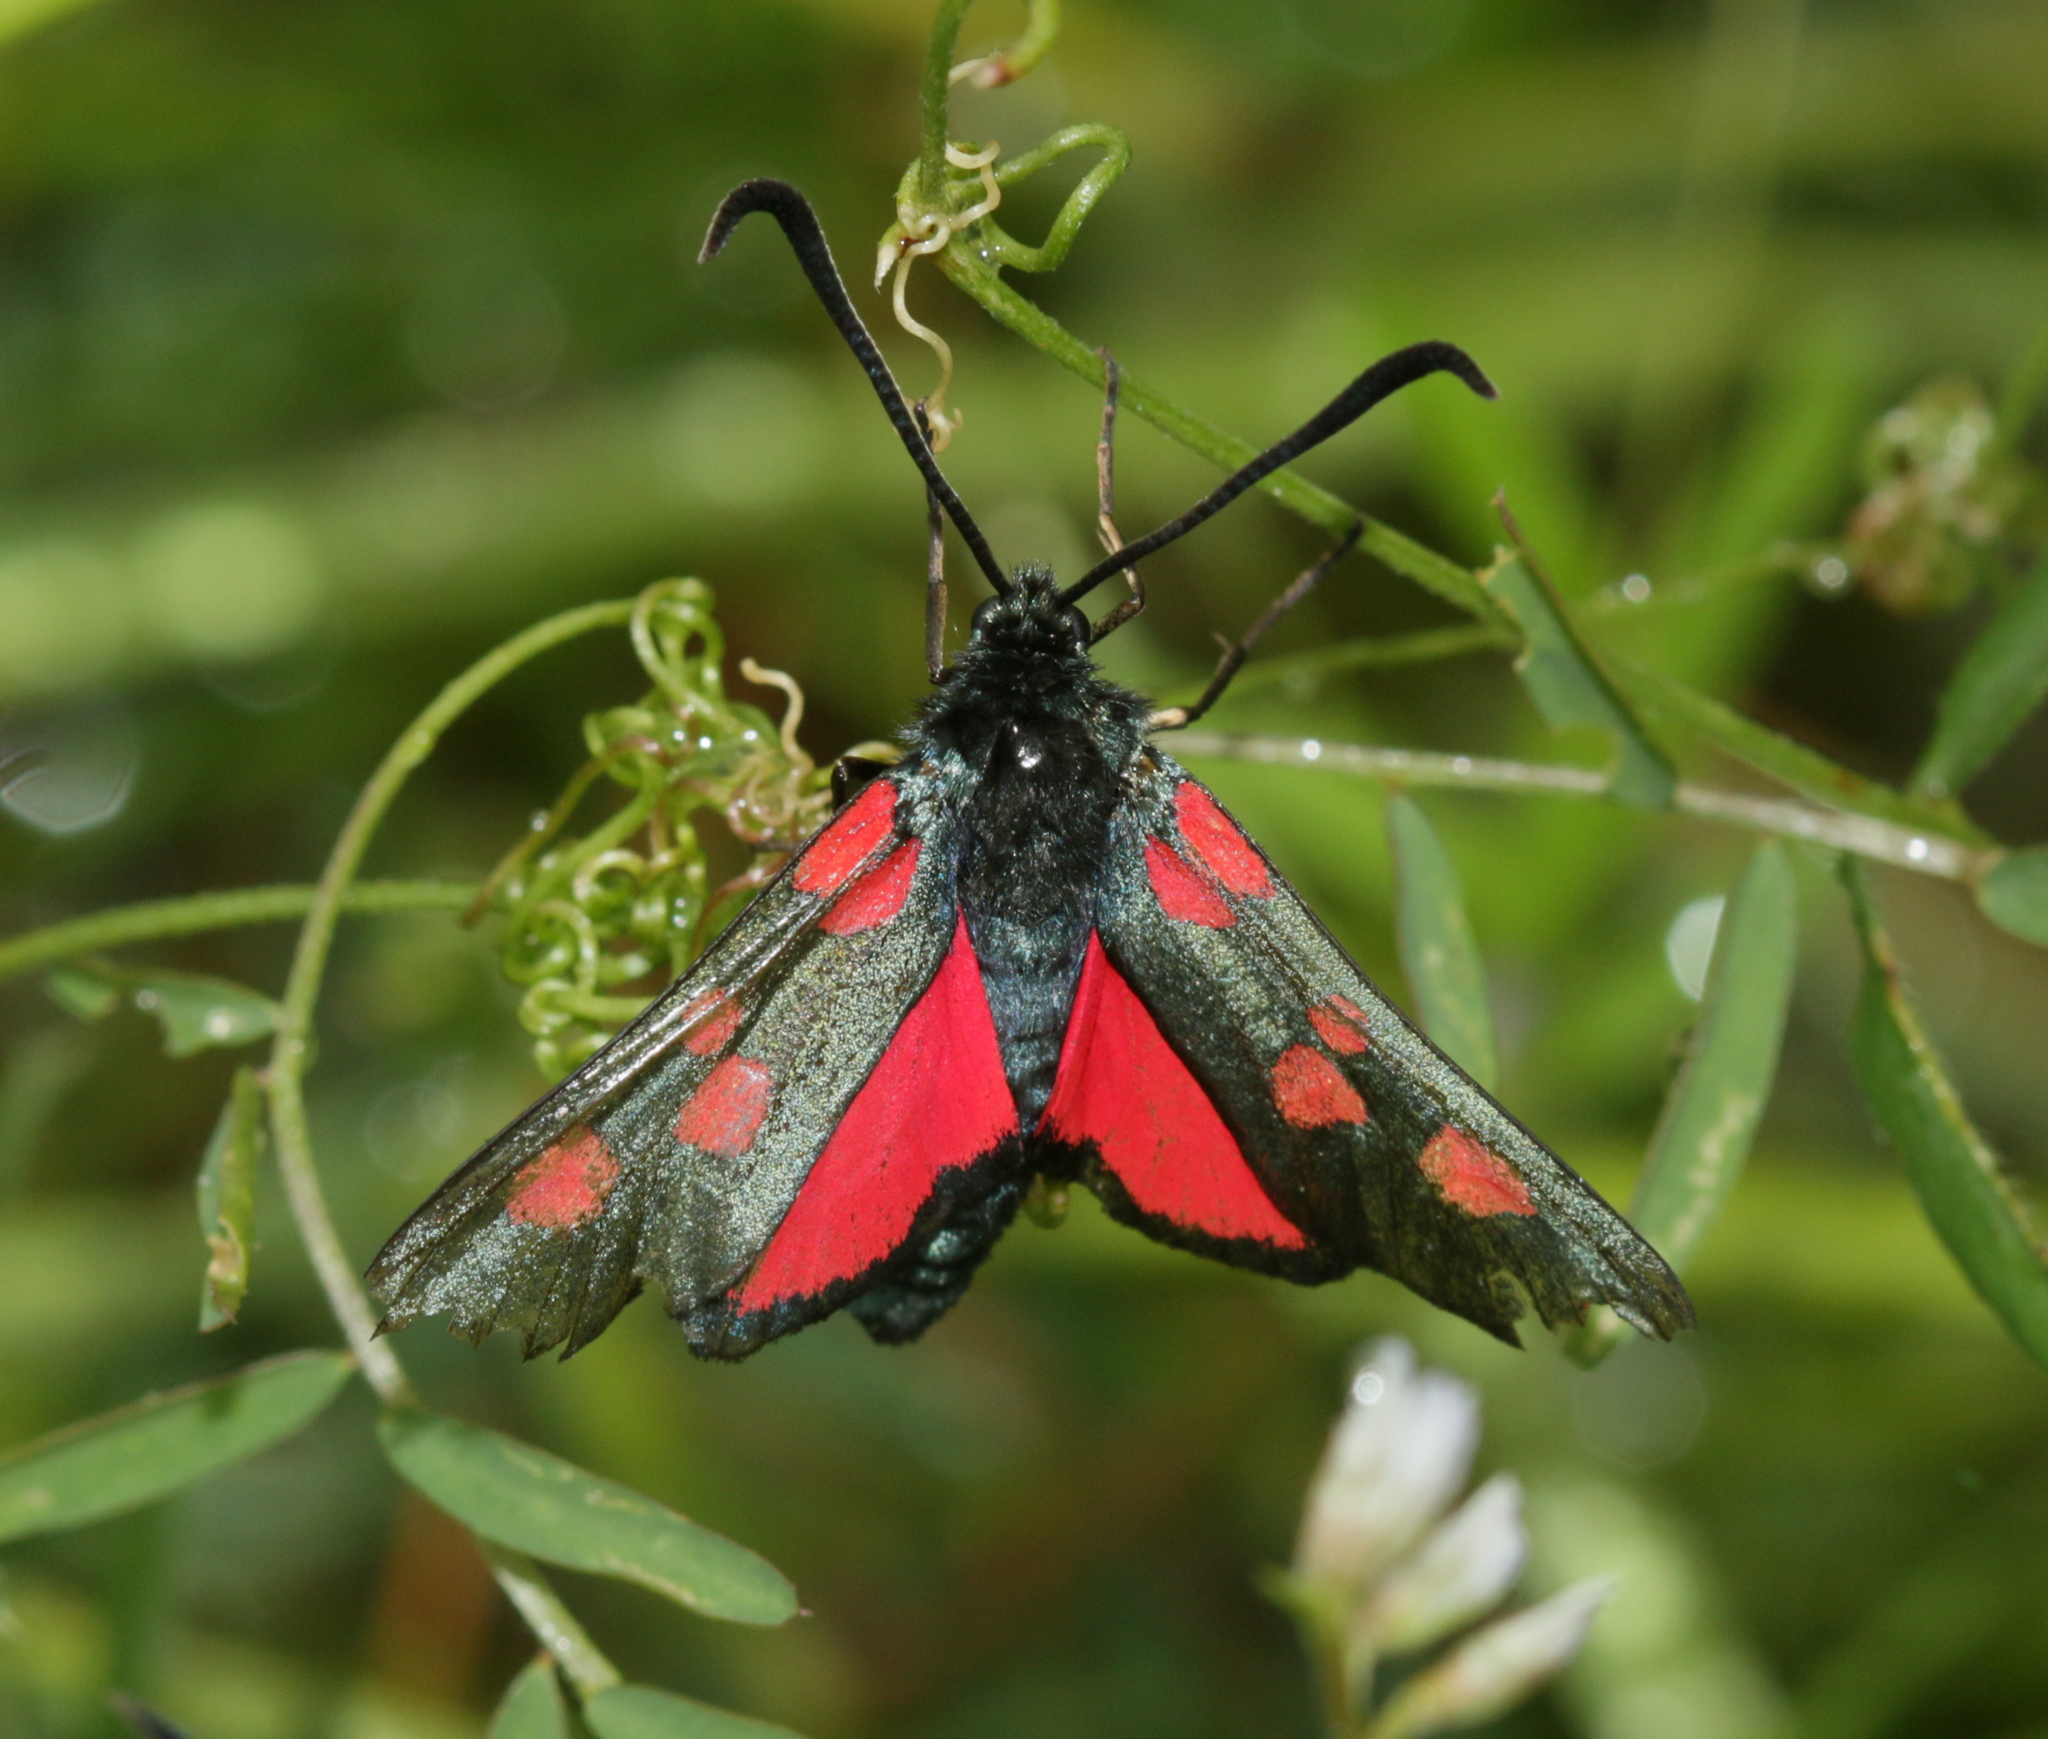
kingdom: Animalia
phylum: Arthropoda
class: Insecta
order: Lepidoptera
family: Zygaenidae
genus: Zygaena
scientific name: Zygaena lonicerae
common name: Narrow-bordered five-spot burnet
